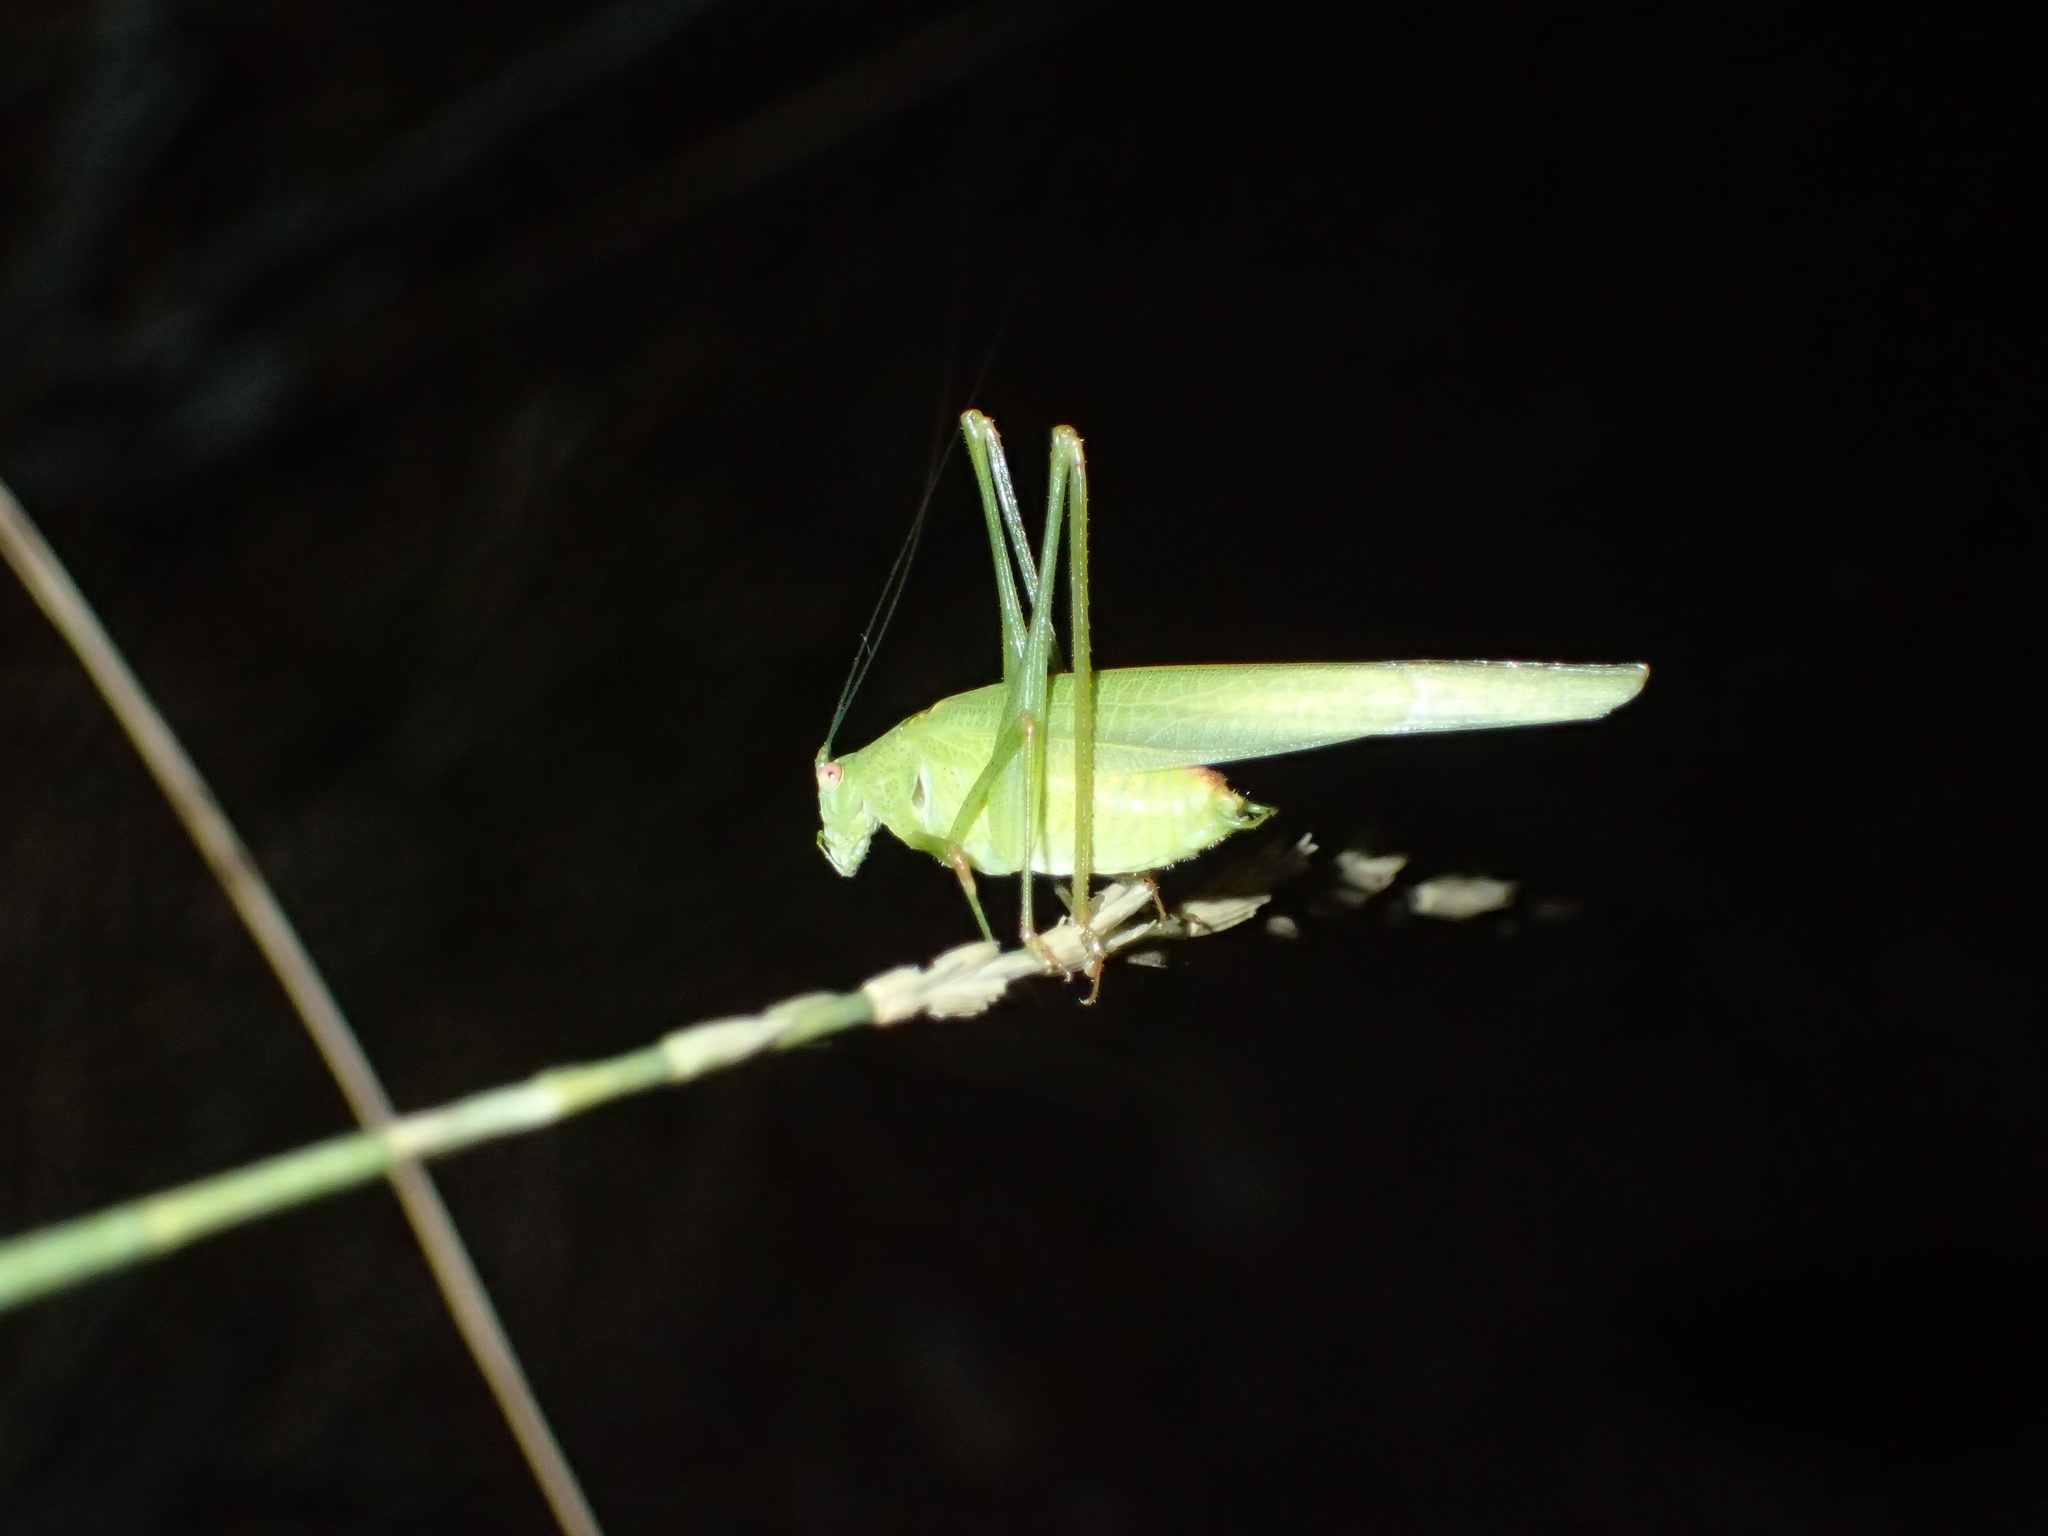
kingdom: Animalia
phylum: Arthropoda
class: Insecta
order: Orthoptera
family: Tettigoniidae
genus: Phaneroptera
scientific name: Phaneroptera nana
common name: Southern sickle bush-cricket
